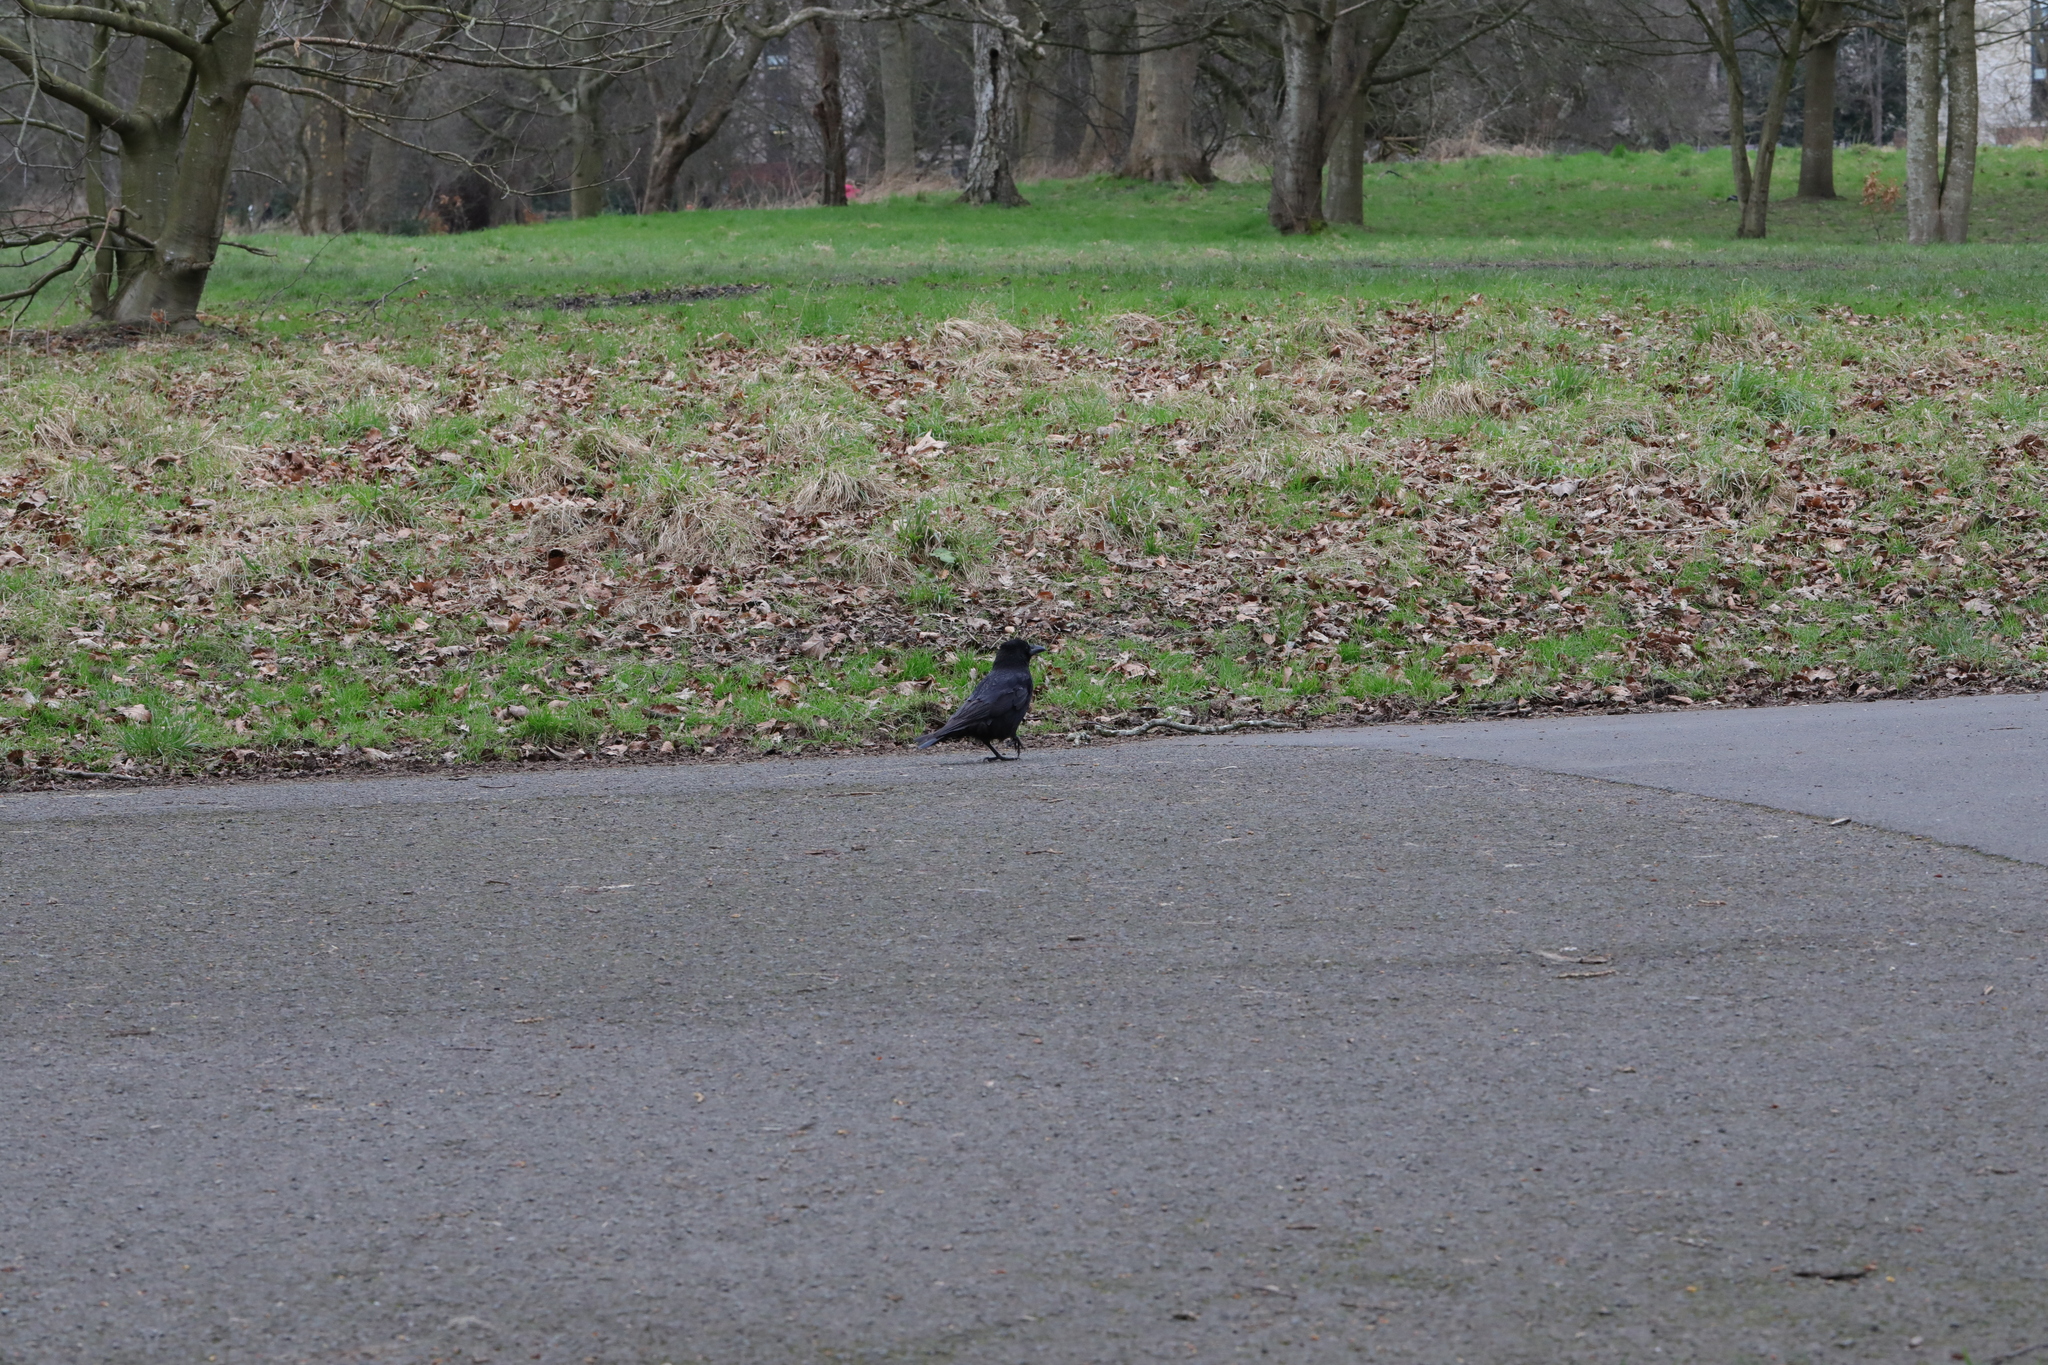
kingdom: Animalia
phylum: Chordata
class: Aves
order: Passeriformes
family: Corvidae
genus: Corvus
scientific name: Corvus corone
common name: Carrion crow
